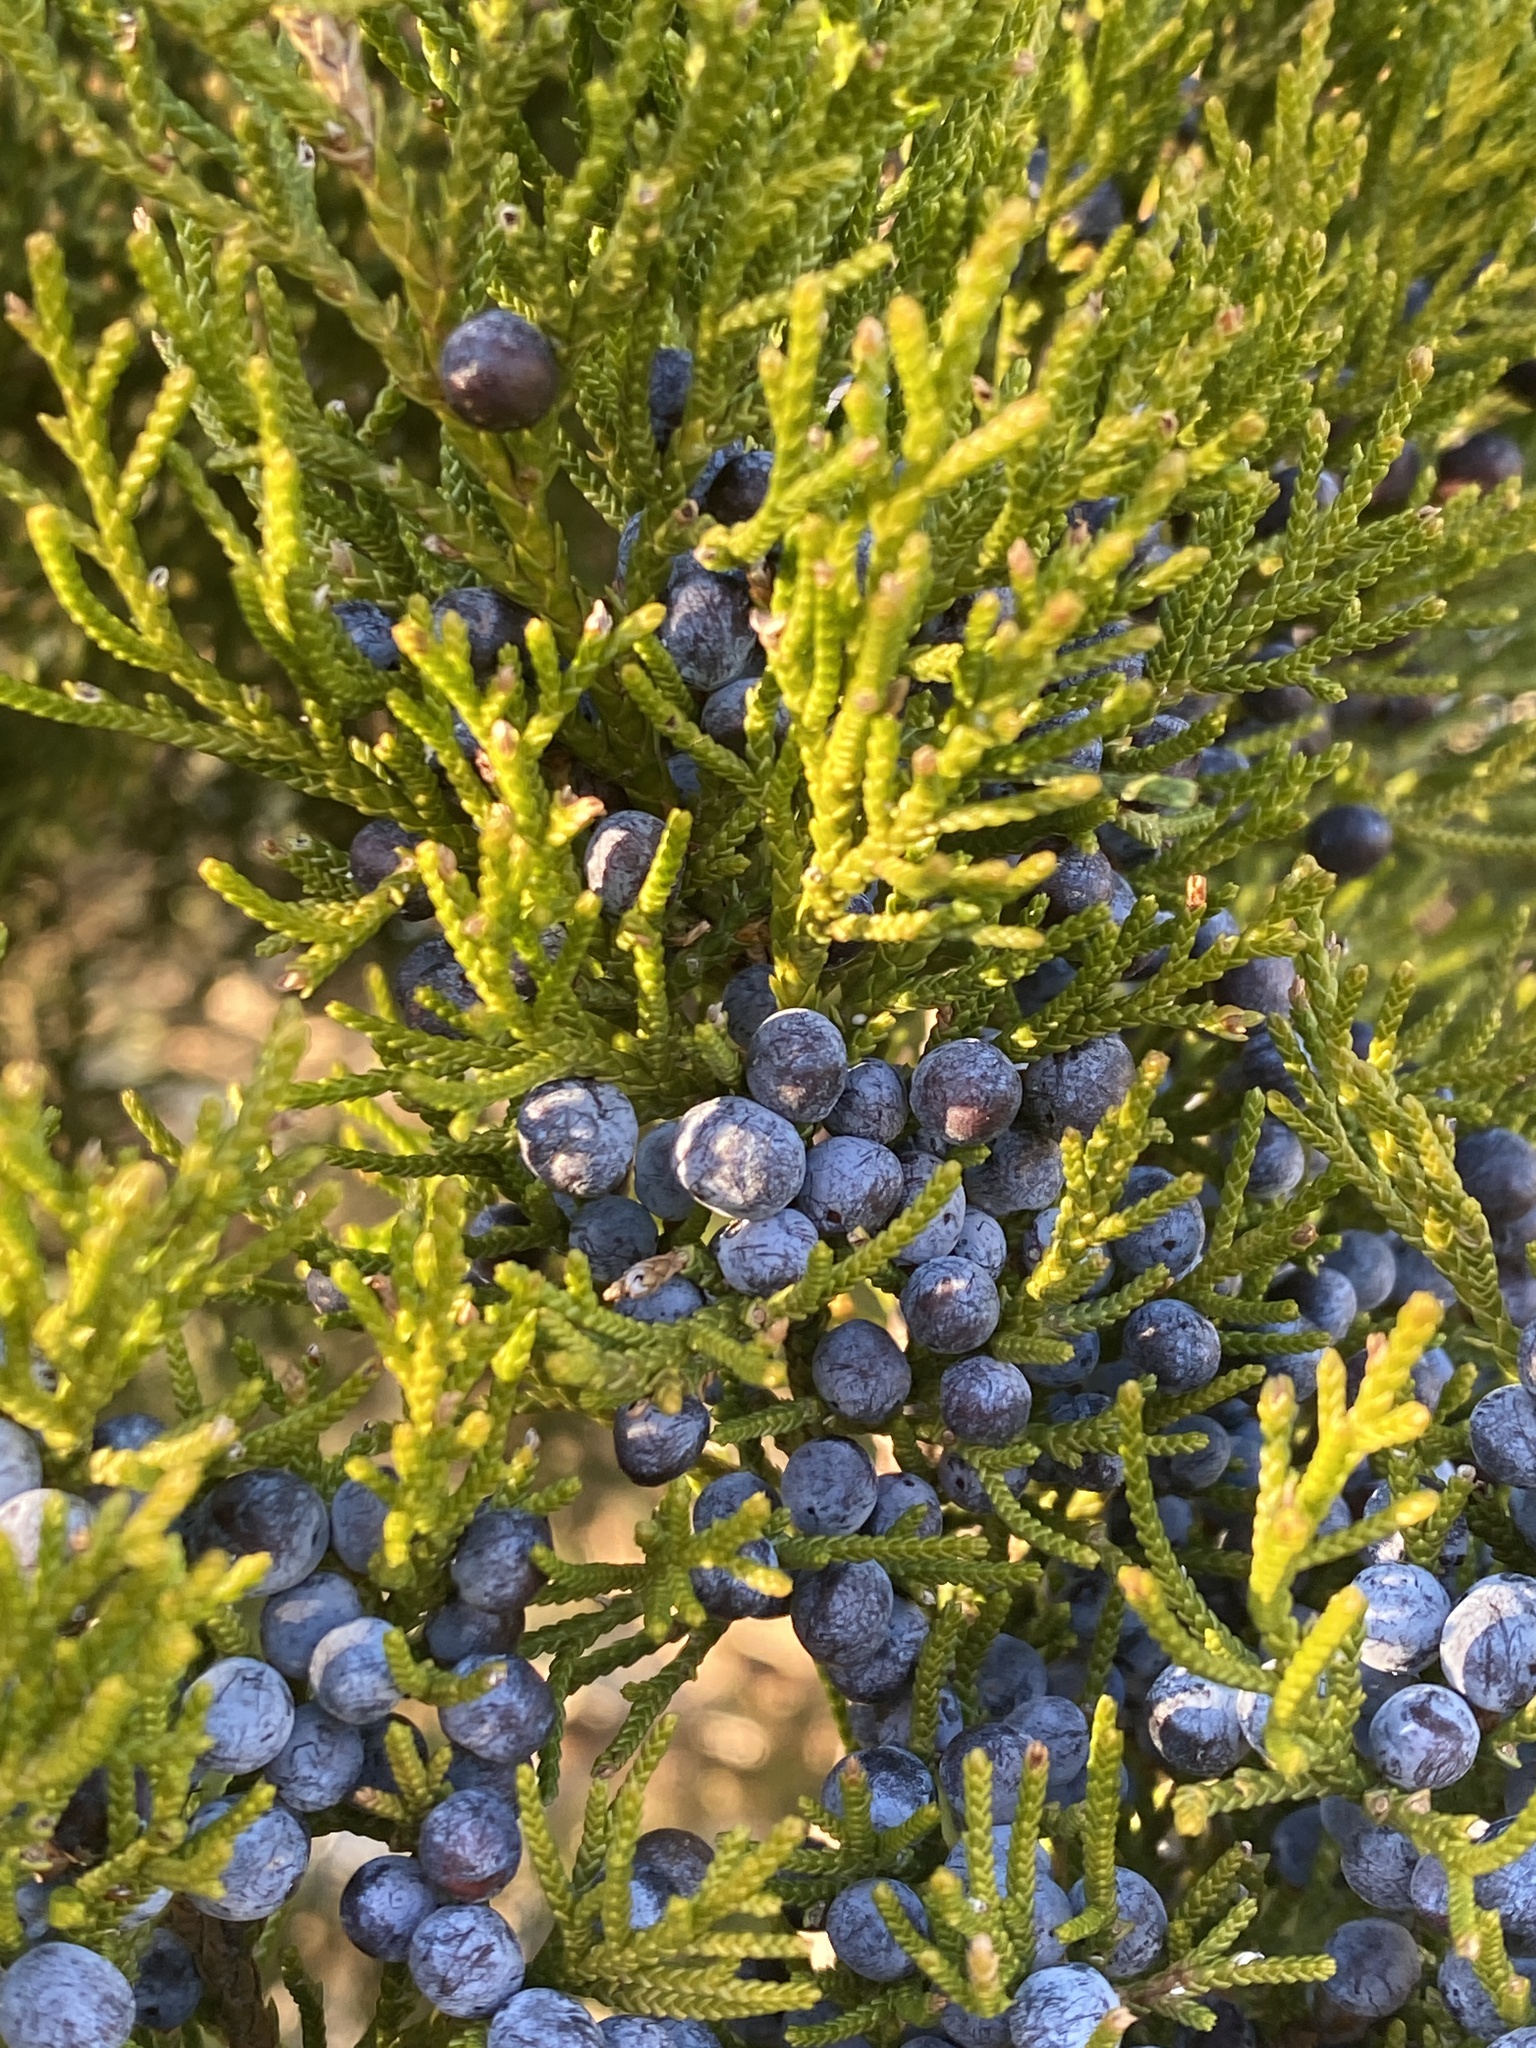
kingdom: Plantae
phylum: Tracheophyta
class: Pinopsida
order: Pinales
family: Cupressaceae
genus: Juniperus
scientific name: Juniperus virginiana
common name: Red juniper
